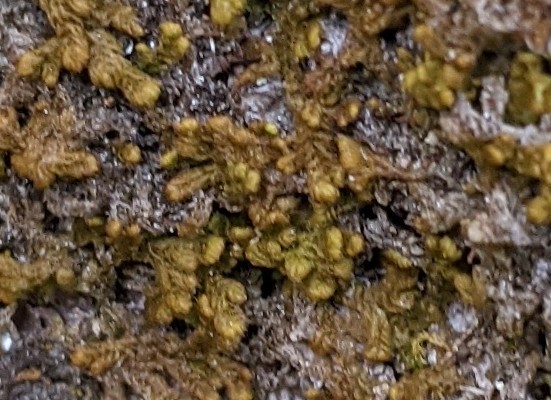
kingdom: Plantae
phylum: Marchantiophyta
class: Jungermanniopsida
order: Ptilidiales
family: Ptilidiaceae
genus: Ptilidium
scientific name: Ptilidium pulcherrimum
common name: Tree fringewort
